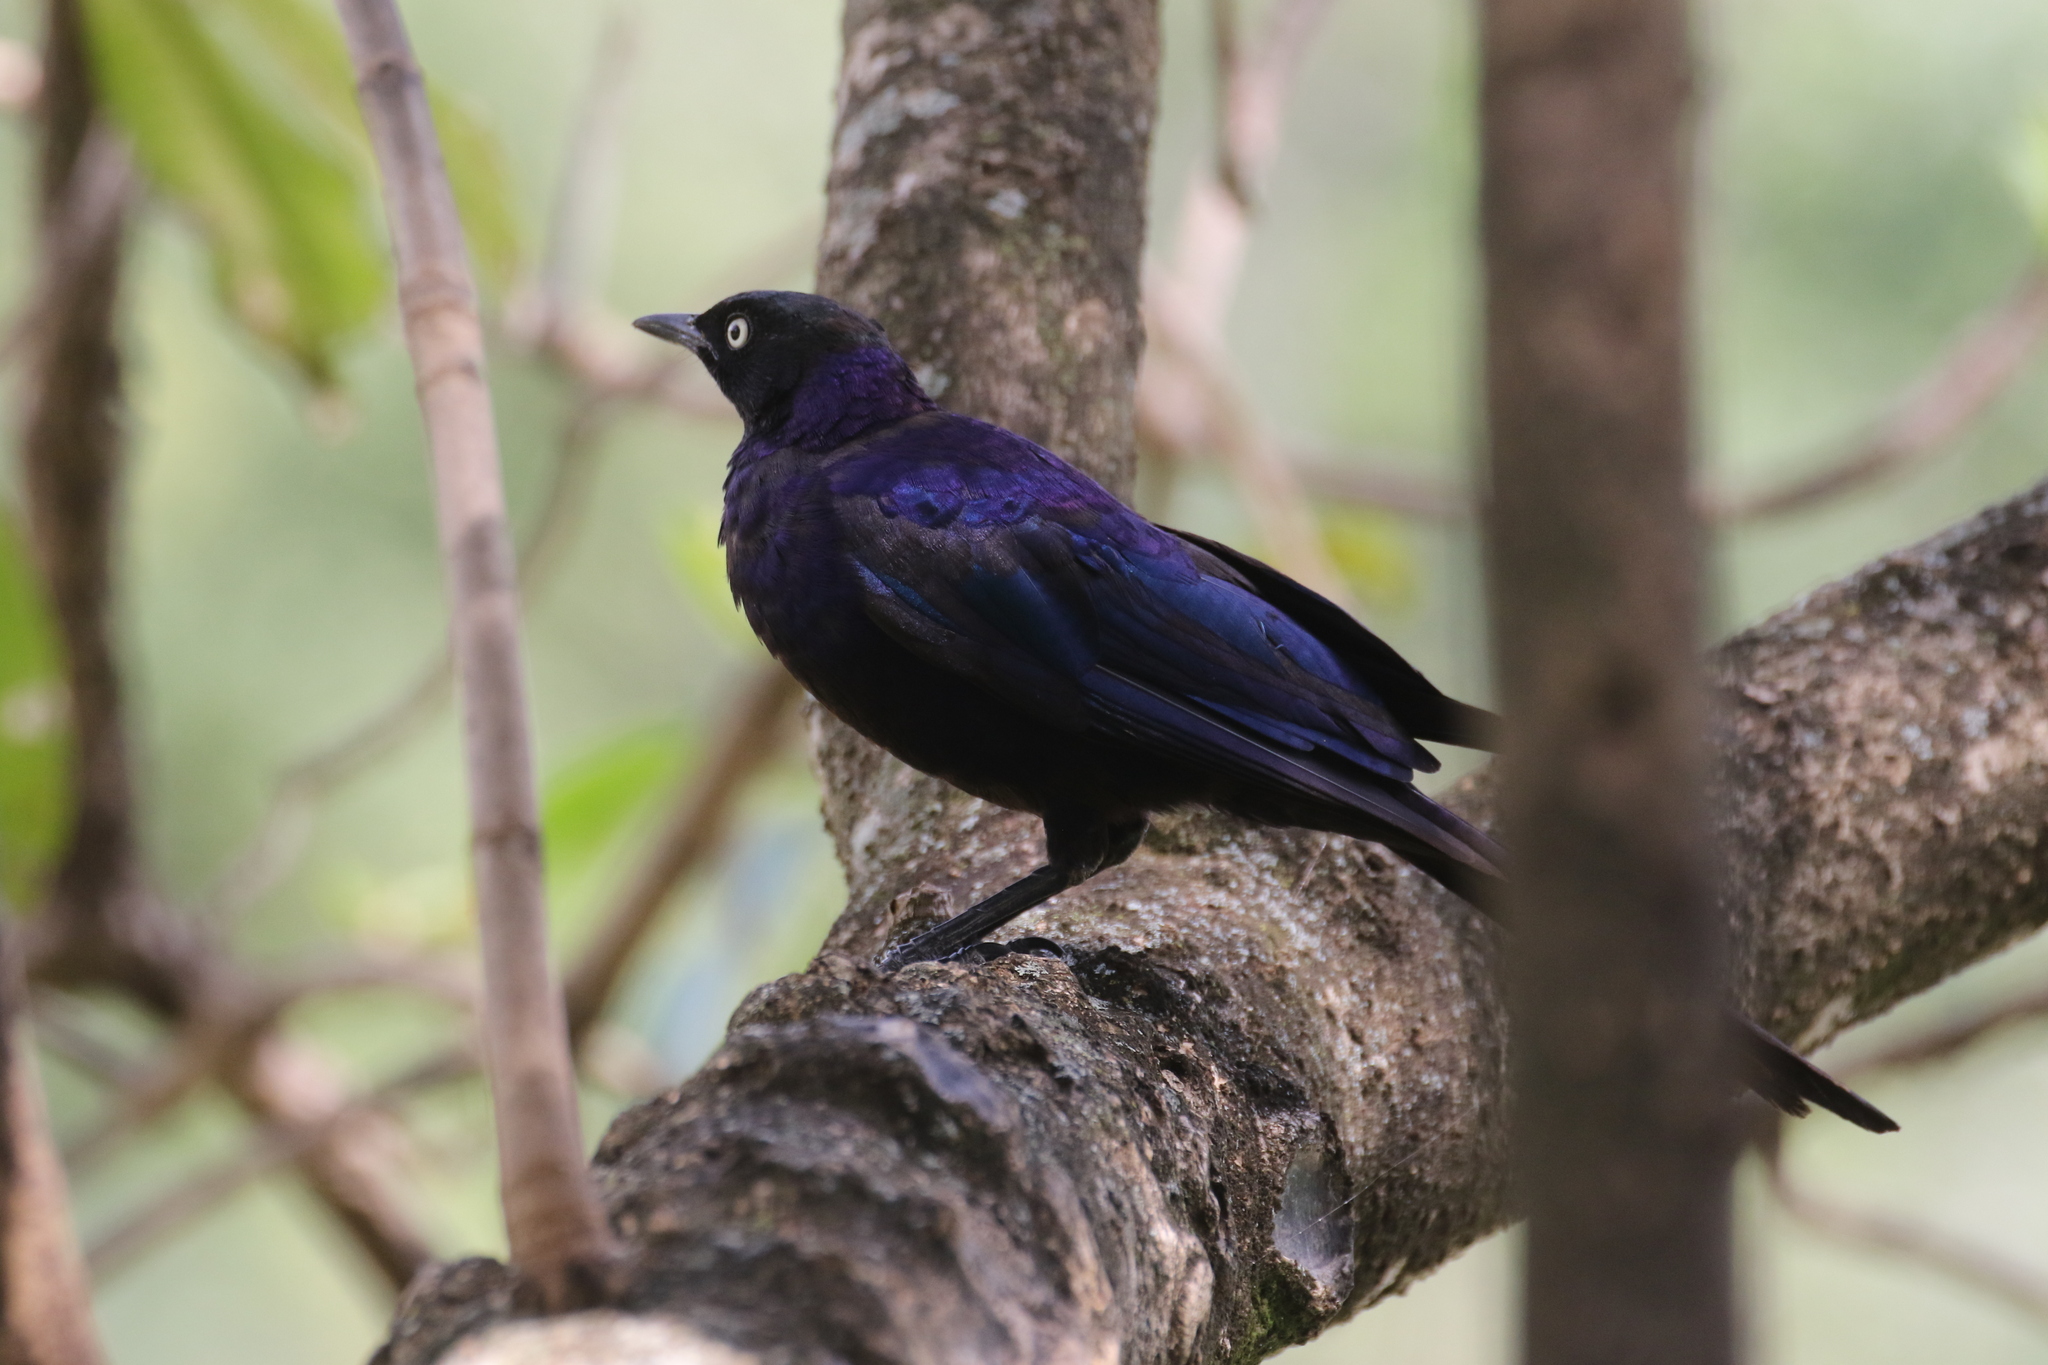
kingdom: Animalia
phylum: Chordata
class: Aves
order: Passeriformes
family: Sturnidae
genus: Lamprotornis
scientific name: Lamprotornis purpuroptera
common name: Rüppell's starling
